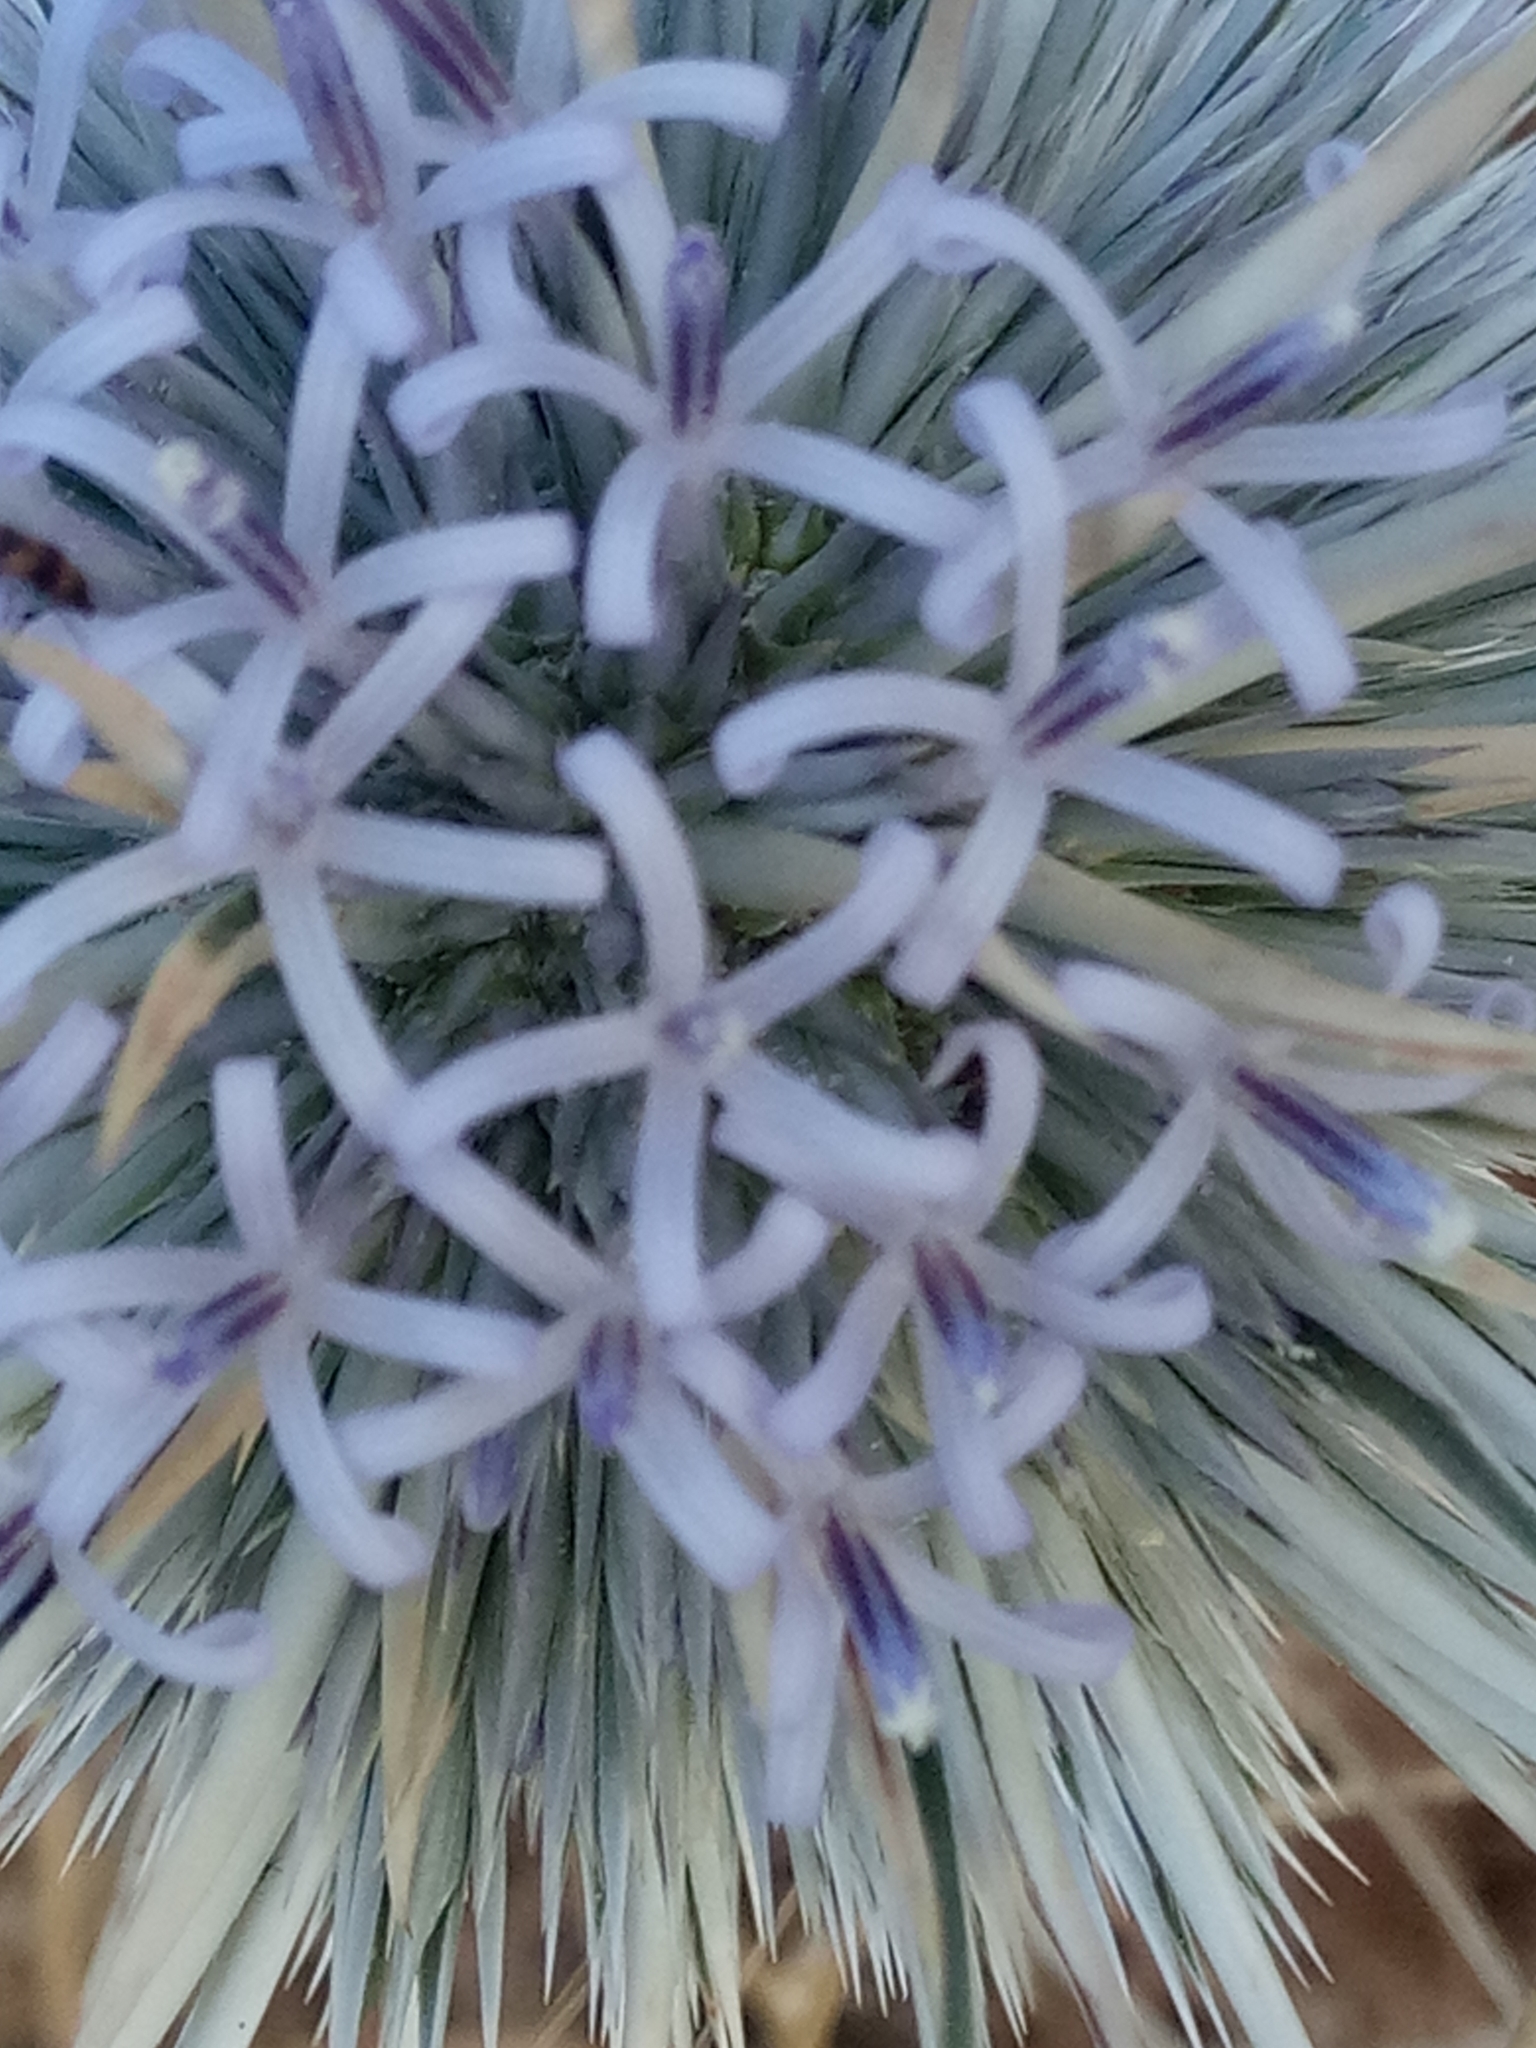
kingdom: Plantae
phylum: Tracheophyta
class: Magnoliopsida
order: Asterales
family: Asteraceae
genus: Echinops
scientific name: Echinops spinosissimus
